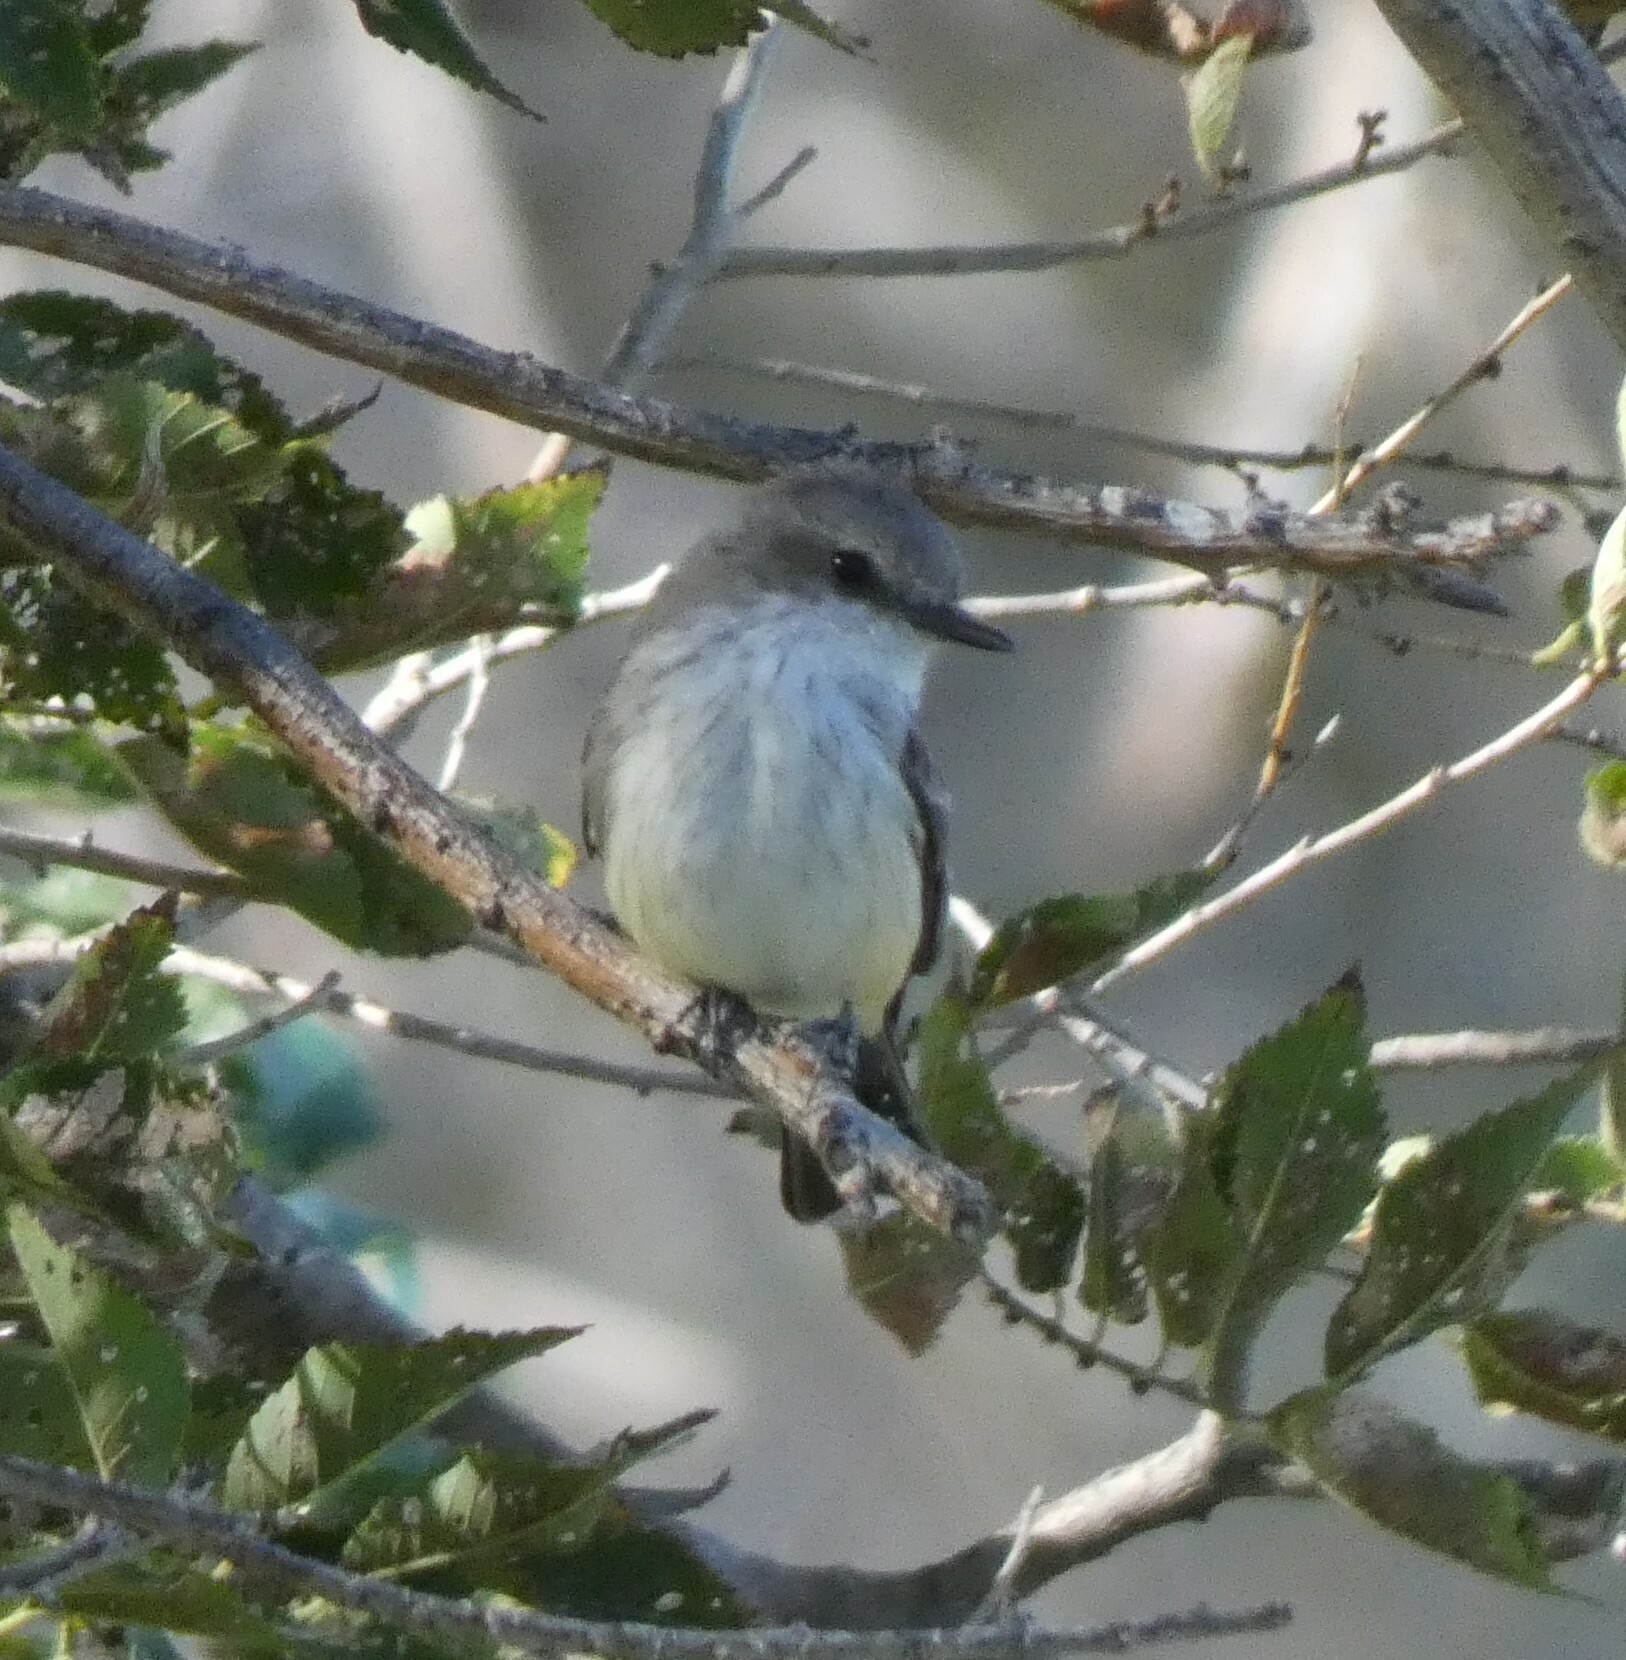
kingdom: Animalia
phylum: Chordata
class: Aves
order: Passeriformes
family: Tyrannidae
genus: Pyrocephalus
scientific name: Pyrocephalus rubinus
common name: Vermilion flycatcher
